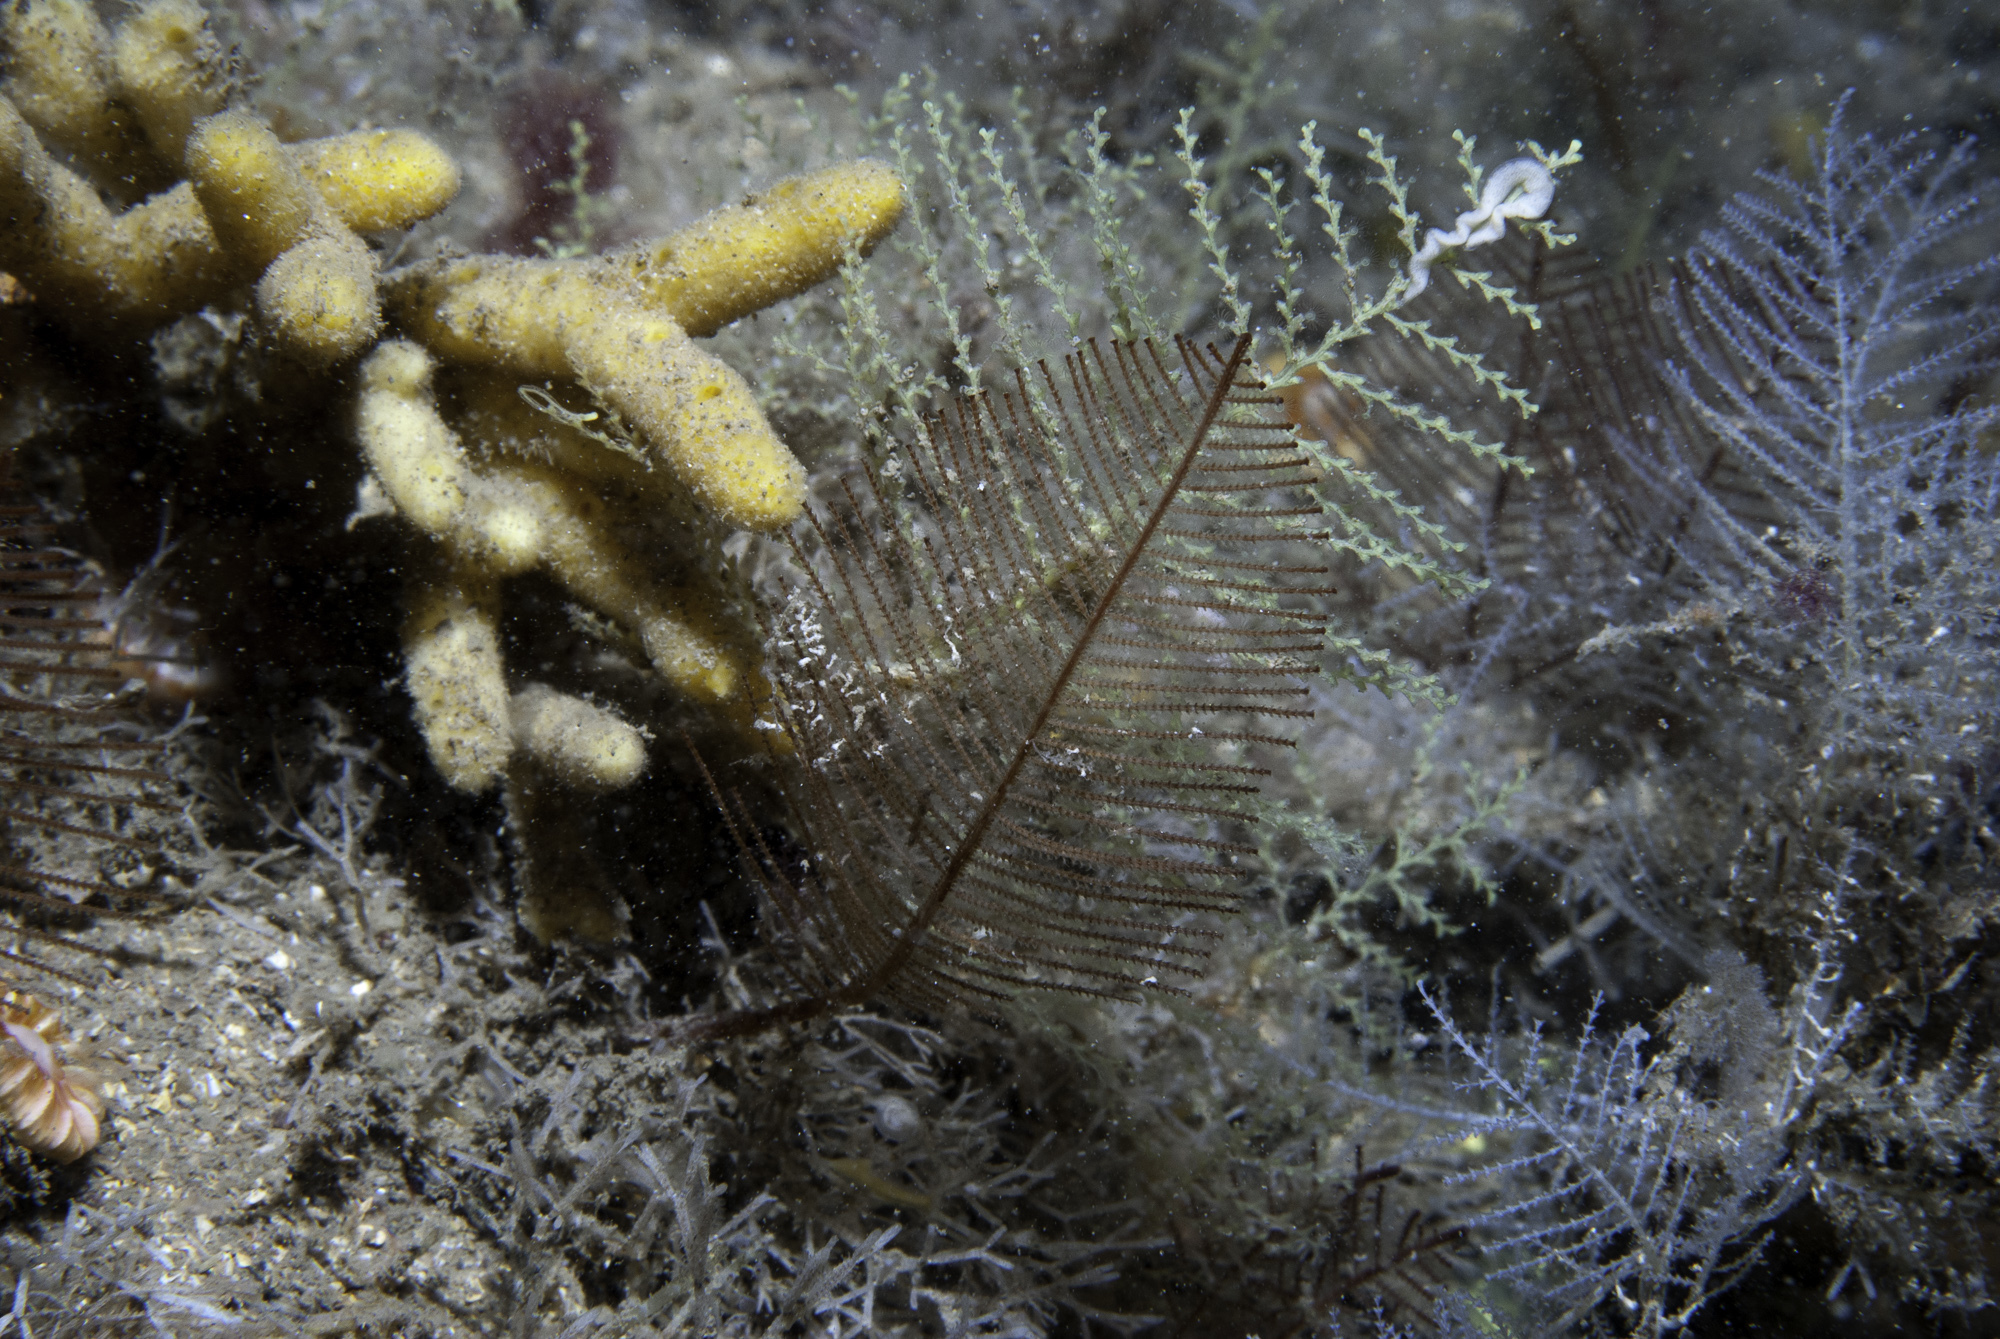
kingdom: Animalia
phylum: Mollusca
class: Gastropoda
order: Nudibranchia
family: Dotidae
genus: Doto
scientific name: Doto tuberculata
